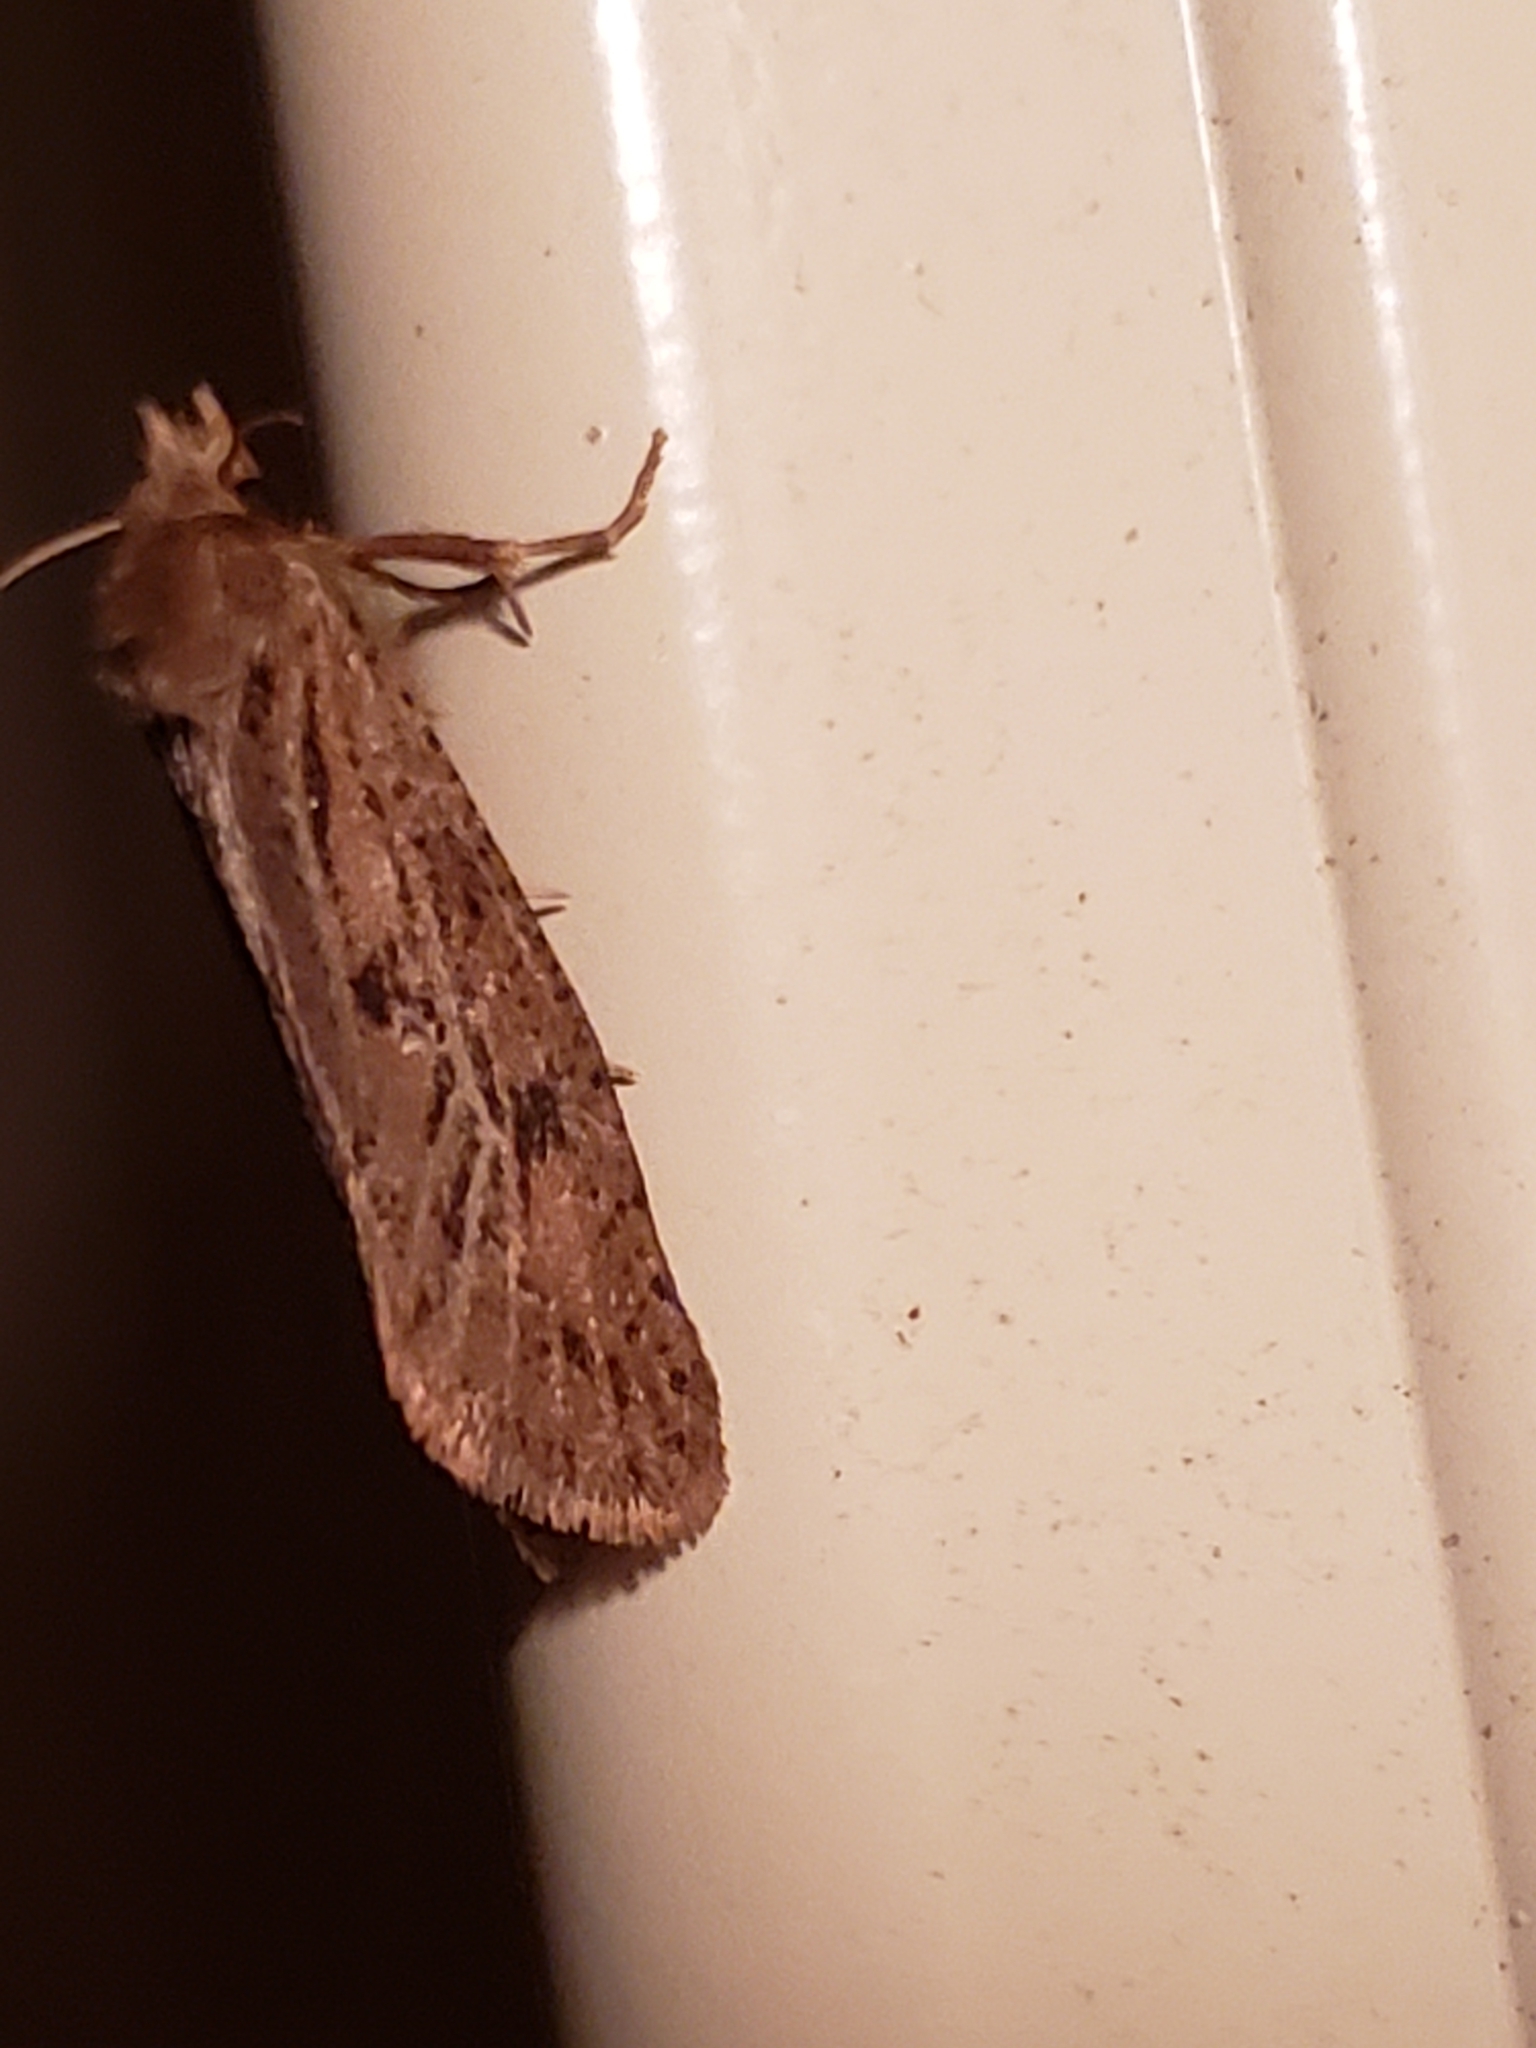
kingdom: Animalia
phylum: Arthropoda
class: Insecta
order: Lepidoptera
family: Tineidae
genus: Acrolophus
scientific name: Acrolophus popeanella
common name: Clemens' grass tubeworm moth
